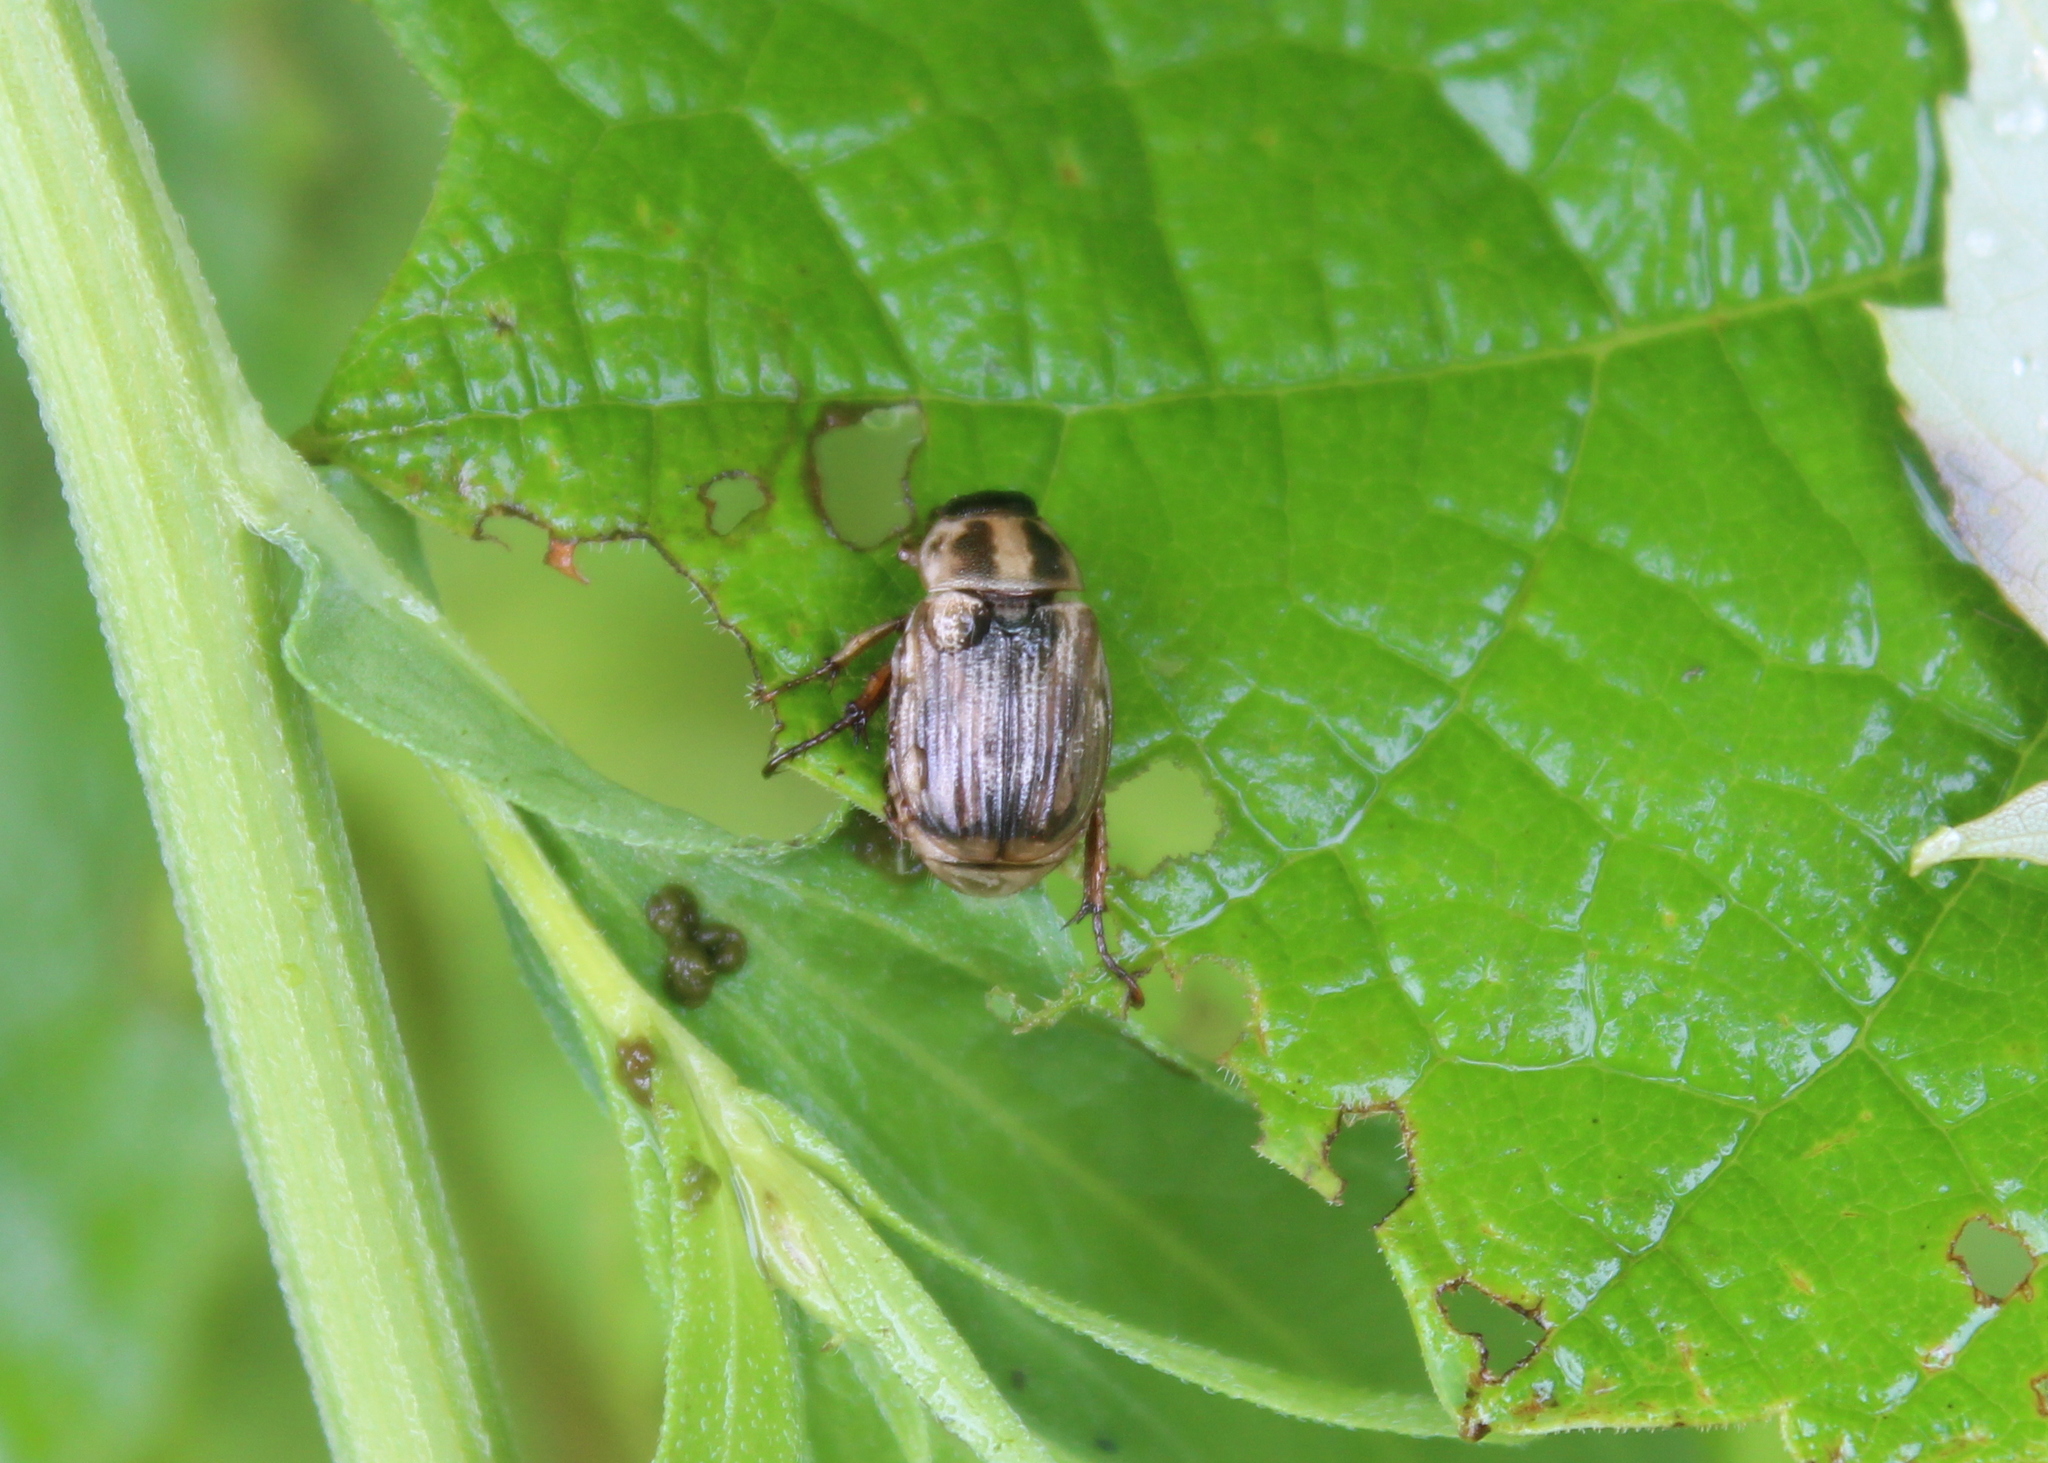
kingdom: Animalia
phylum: Arthropoda
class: Insecta
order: Coleoptera
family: Scarabaeidae
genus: Exomala
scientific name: Exomala orientalis
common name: Oriental beetle
